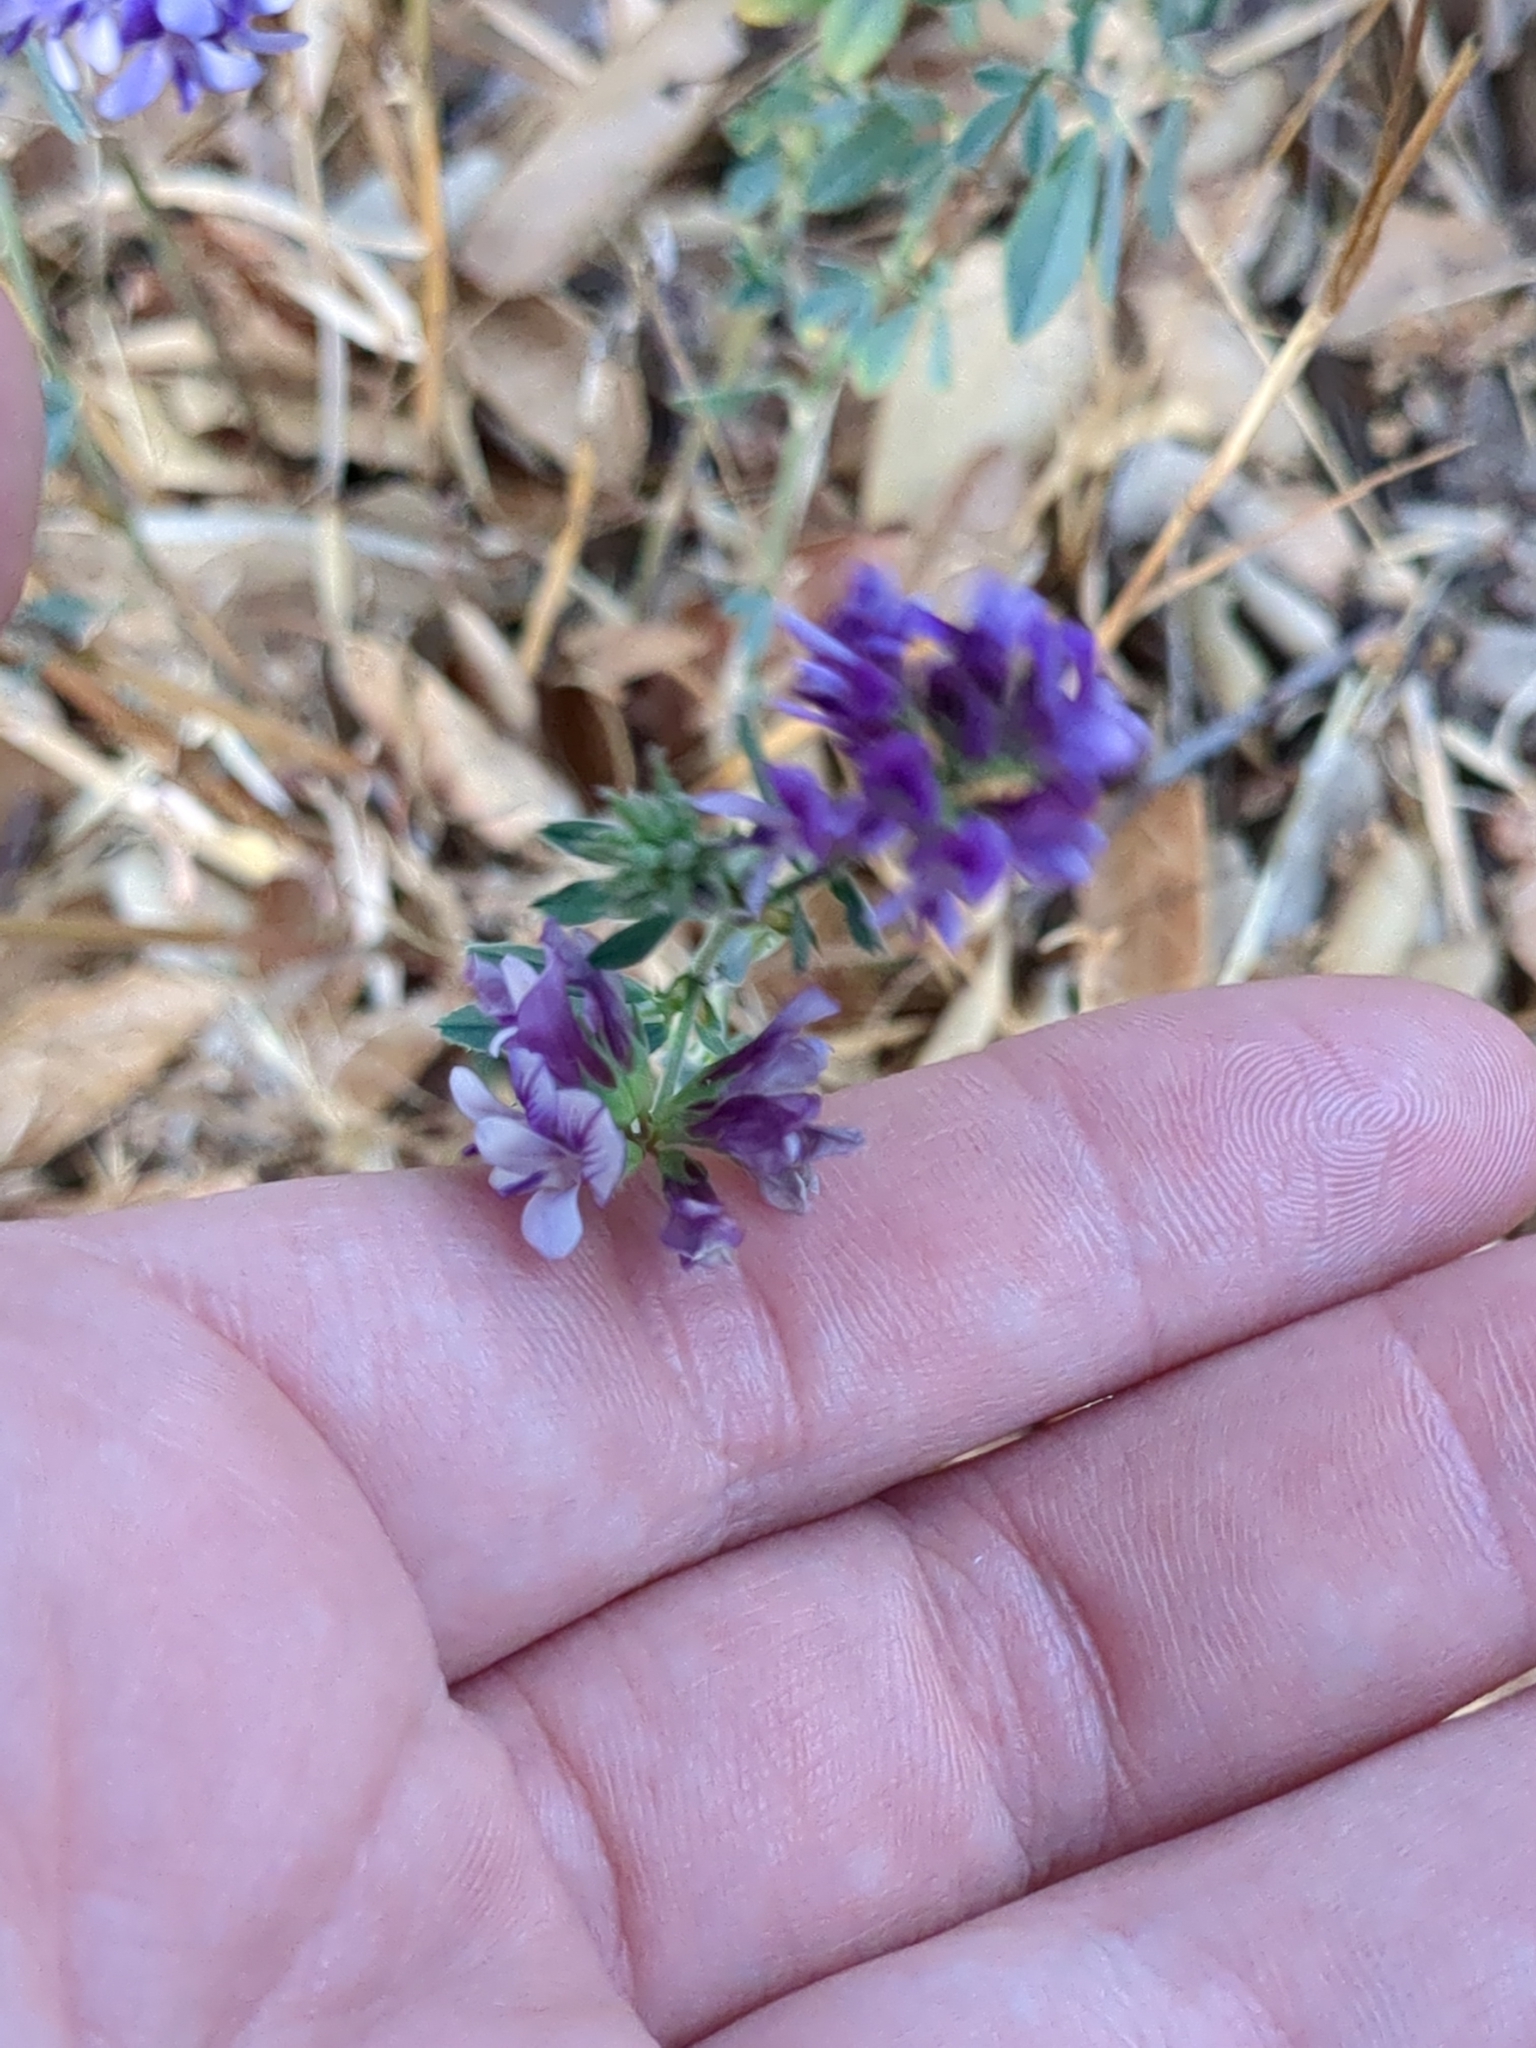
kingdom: Plantae
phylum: Tracheophyta
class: Magnoliopsida
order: Fabales
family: Fabaceae
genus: Medicago
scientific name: Medicago sativa
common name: Alfalfa
